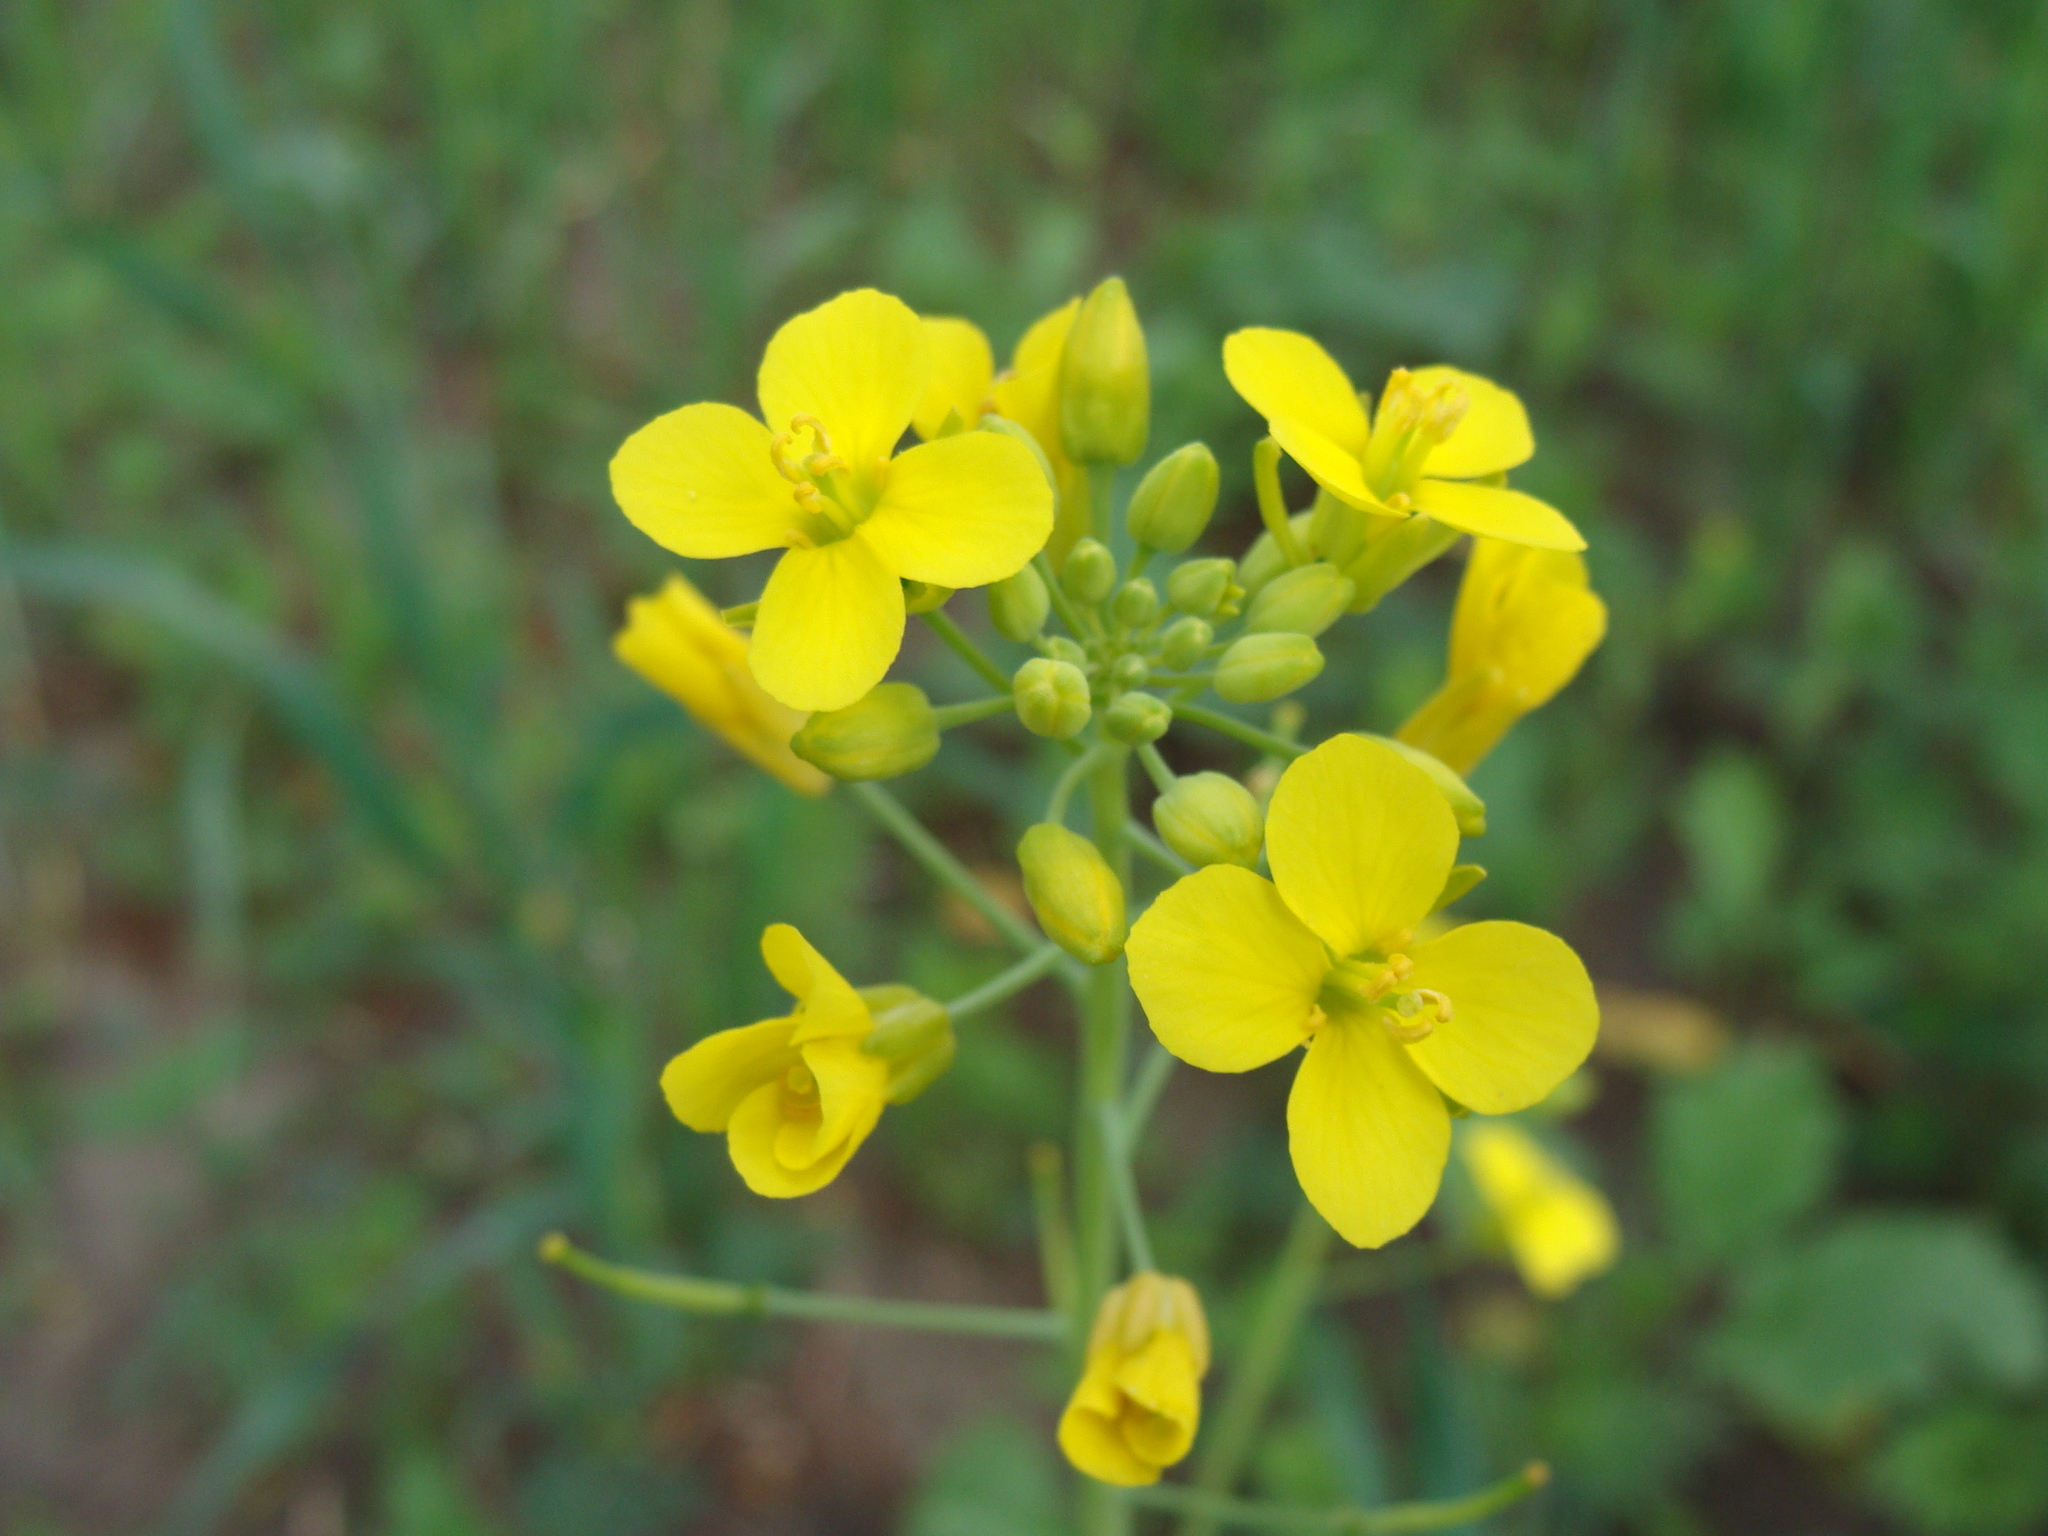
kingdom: Plantae
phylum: Tracheophyta
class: Magnoliopsida
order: Brassicales
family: Brassicaceae
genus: Brassica
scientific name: Brassica rapa
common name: Field mustard
